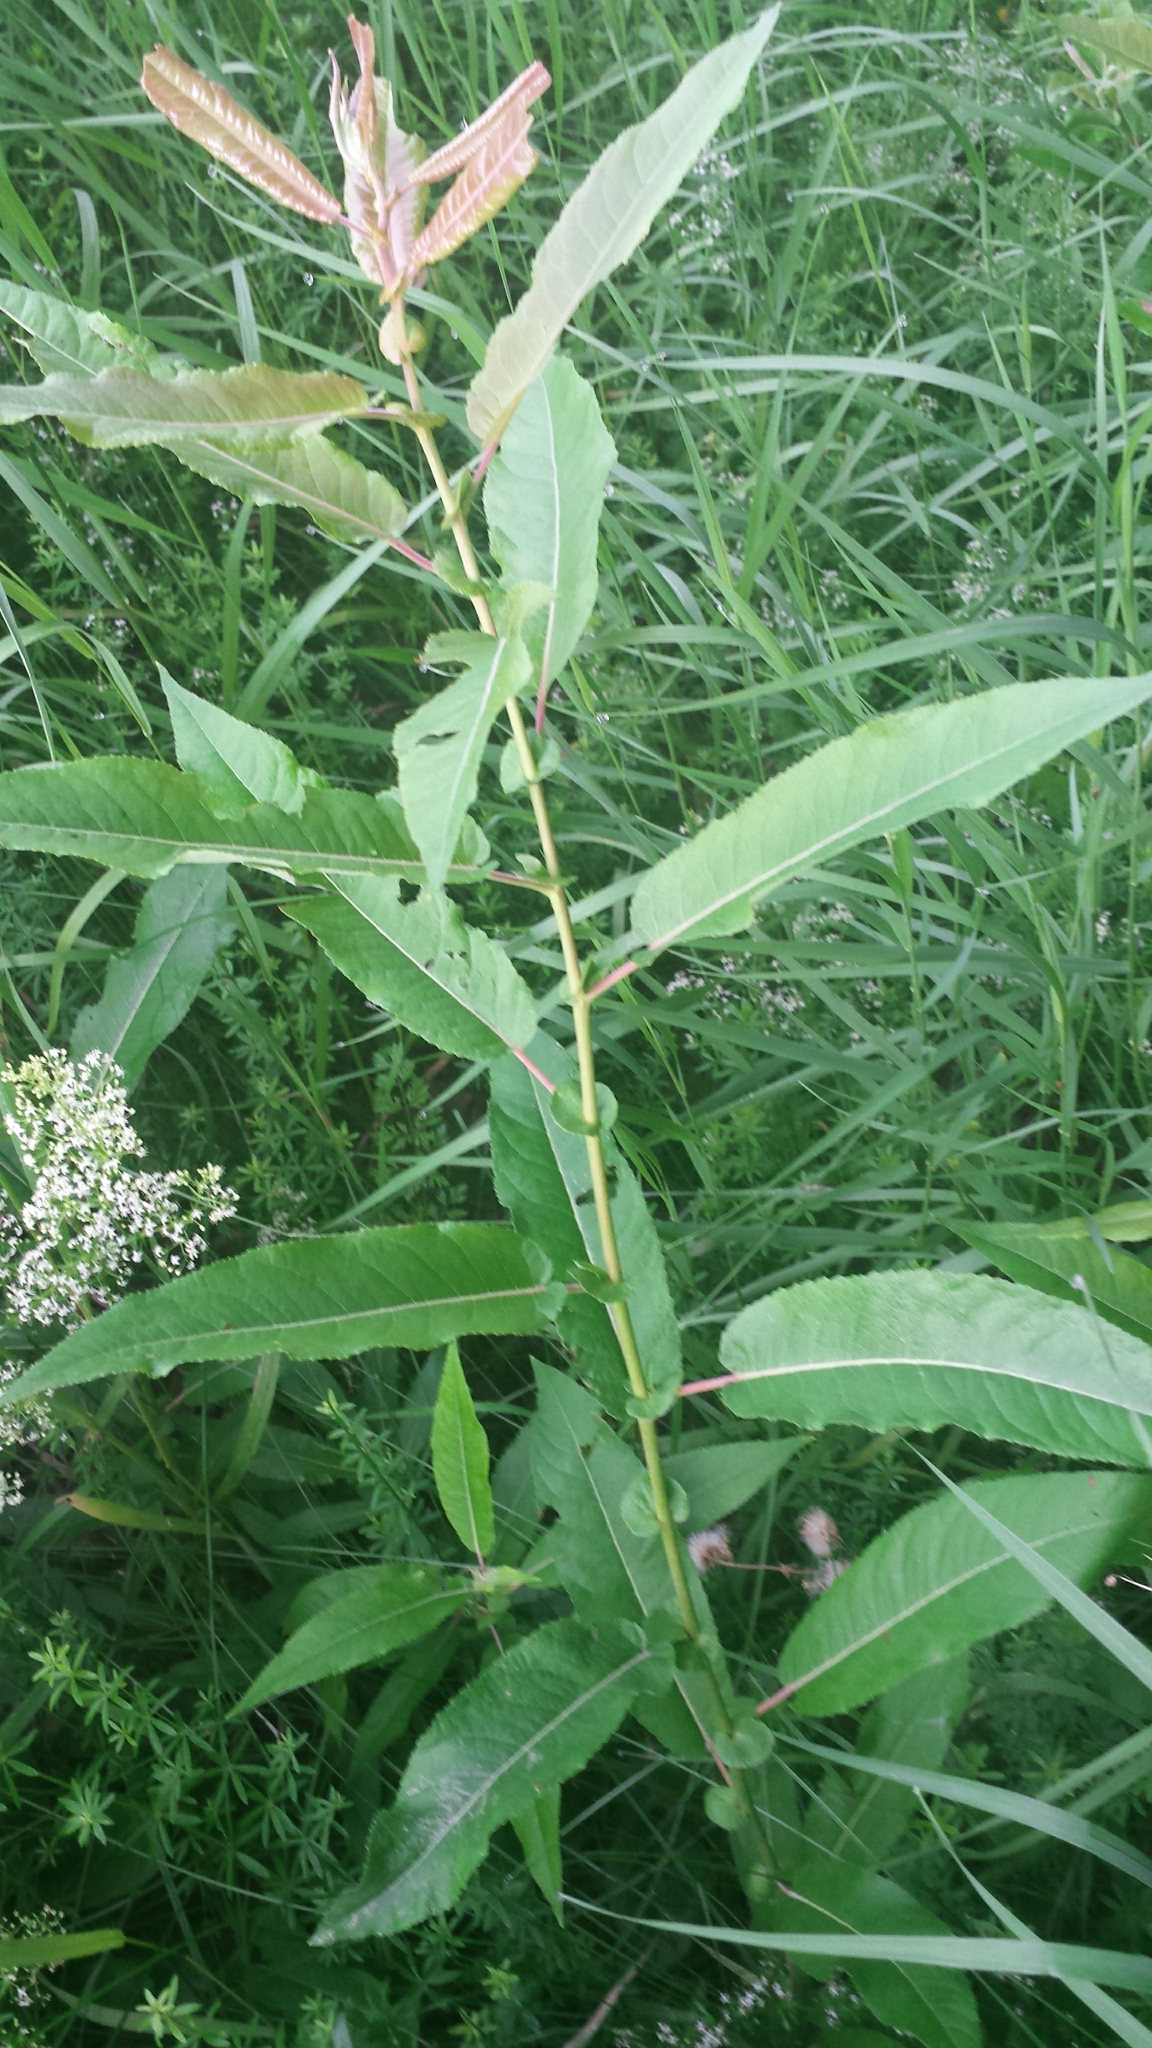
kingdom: Plantae
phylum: Tracheophyta
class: Magnoliopsida
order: Malpighiales
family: Salicaceae
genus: Salix
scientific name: Salix eriocephala
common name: Heart-leaved willow
